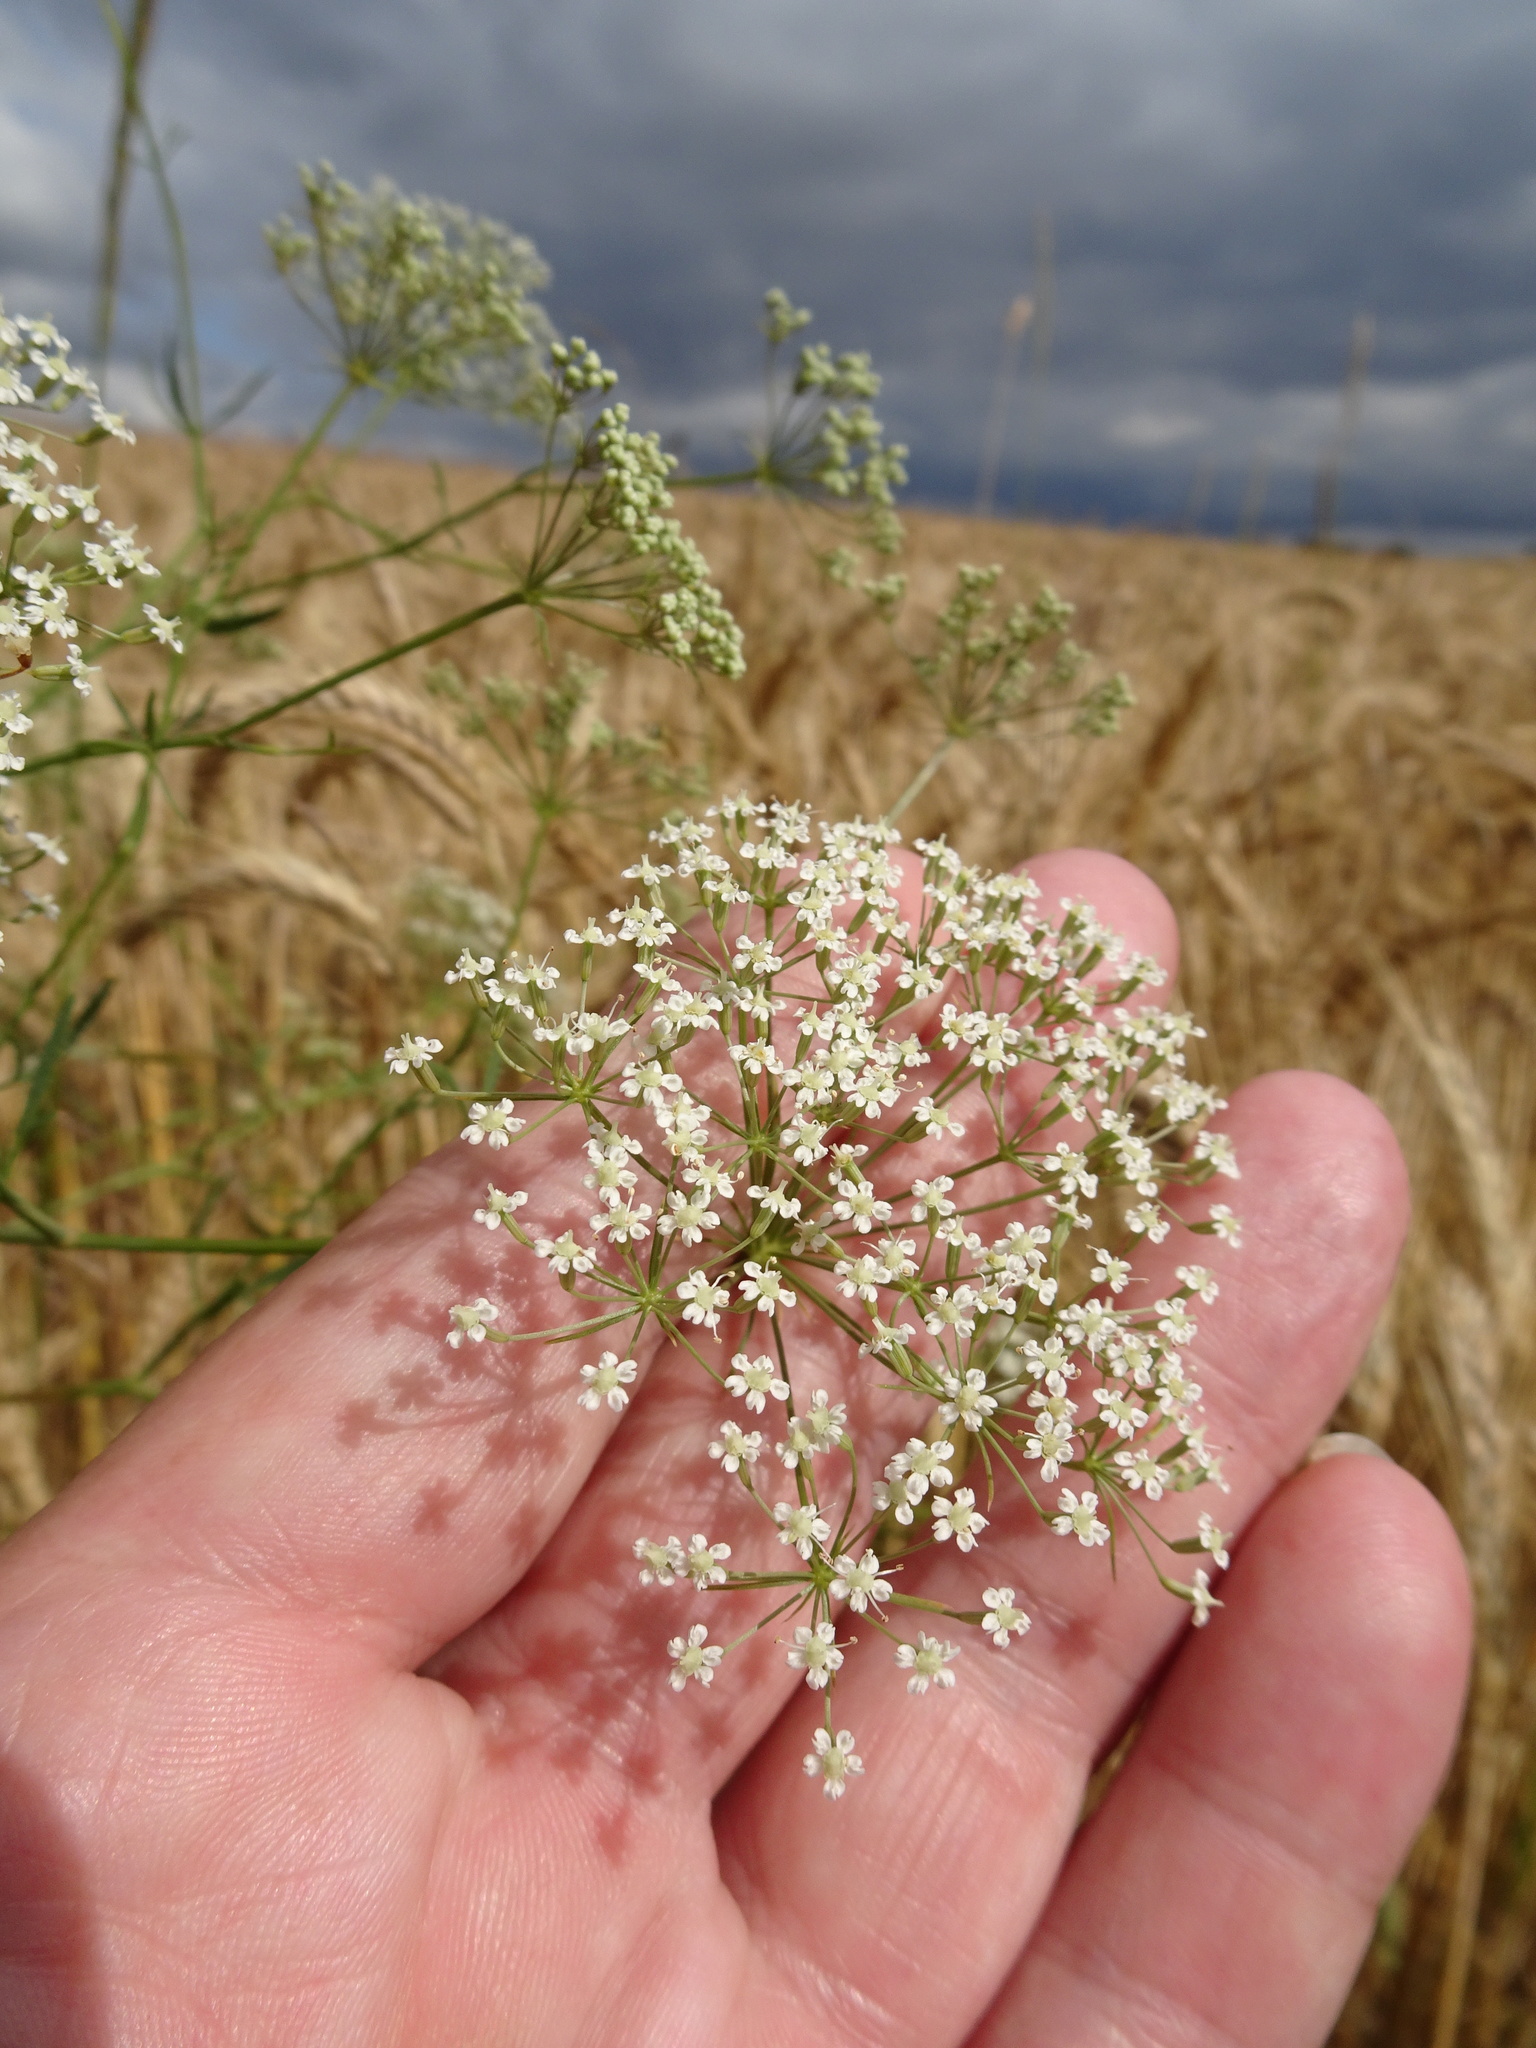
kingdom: Plantae
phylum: Tracheophyta
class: Magnoliopsida
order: Apiales
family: Apiaceae
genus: Falcaria
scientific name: Falcaria vulgaris
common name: Longleaf
